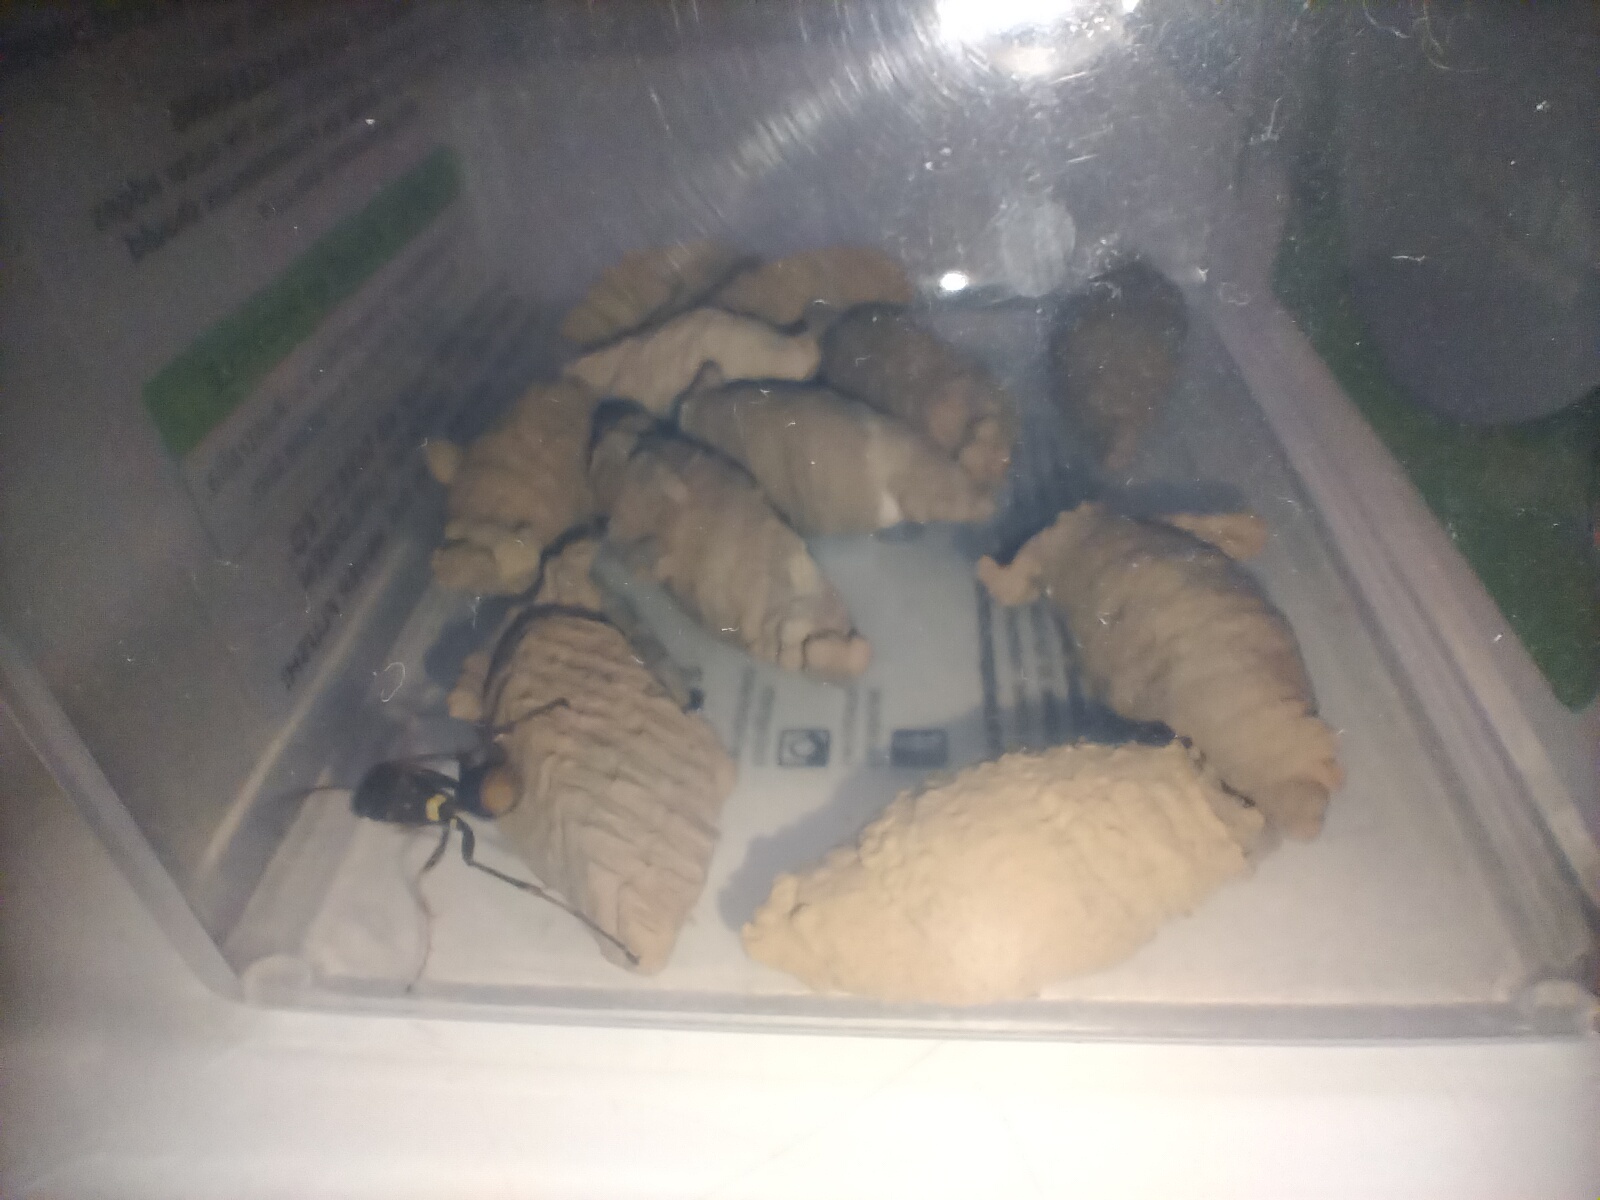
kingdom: Animalia
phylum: Arthropoda
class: Insecta
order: Hymenoptera
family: Sphecidae
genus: Sceliphron
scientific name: Sceliphron formosum
